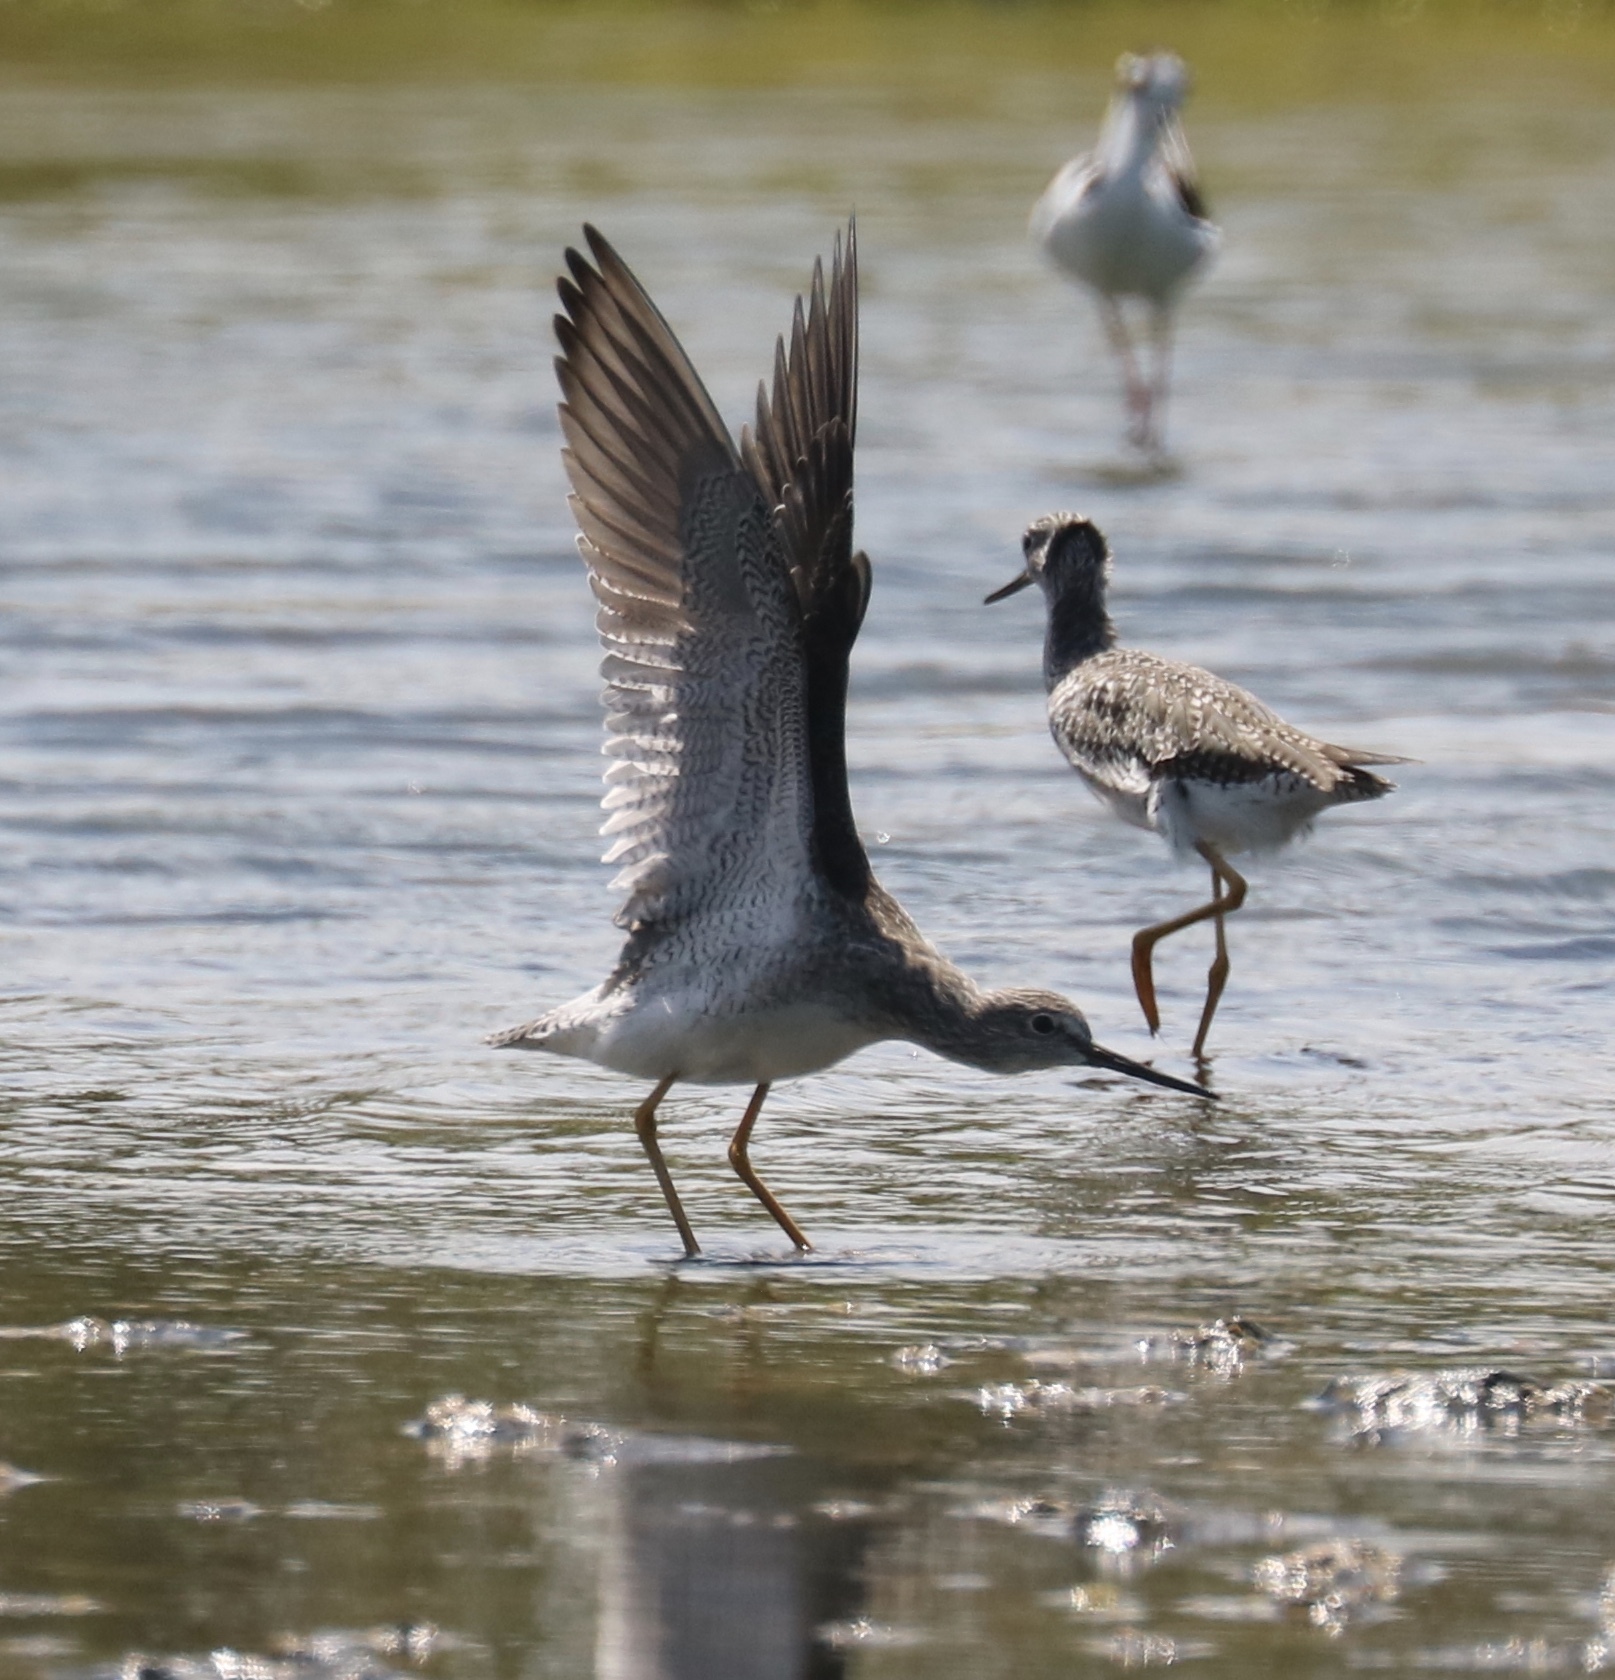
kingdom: Animalia
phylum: Chordata
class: Aves
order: Charadriiformes
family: Scolopacidae
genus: Tringa
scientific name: Tringa melanoleuca
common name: Greater yellowlegs
